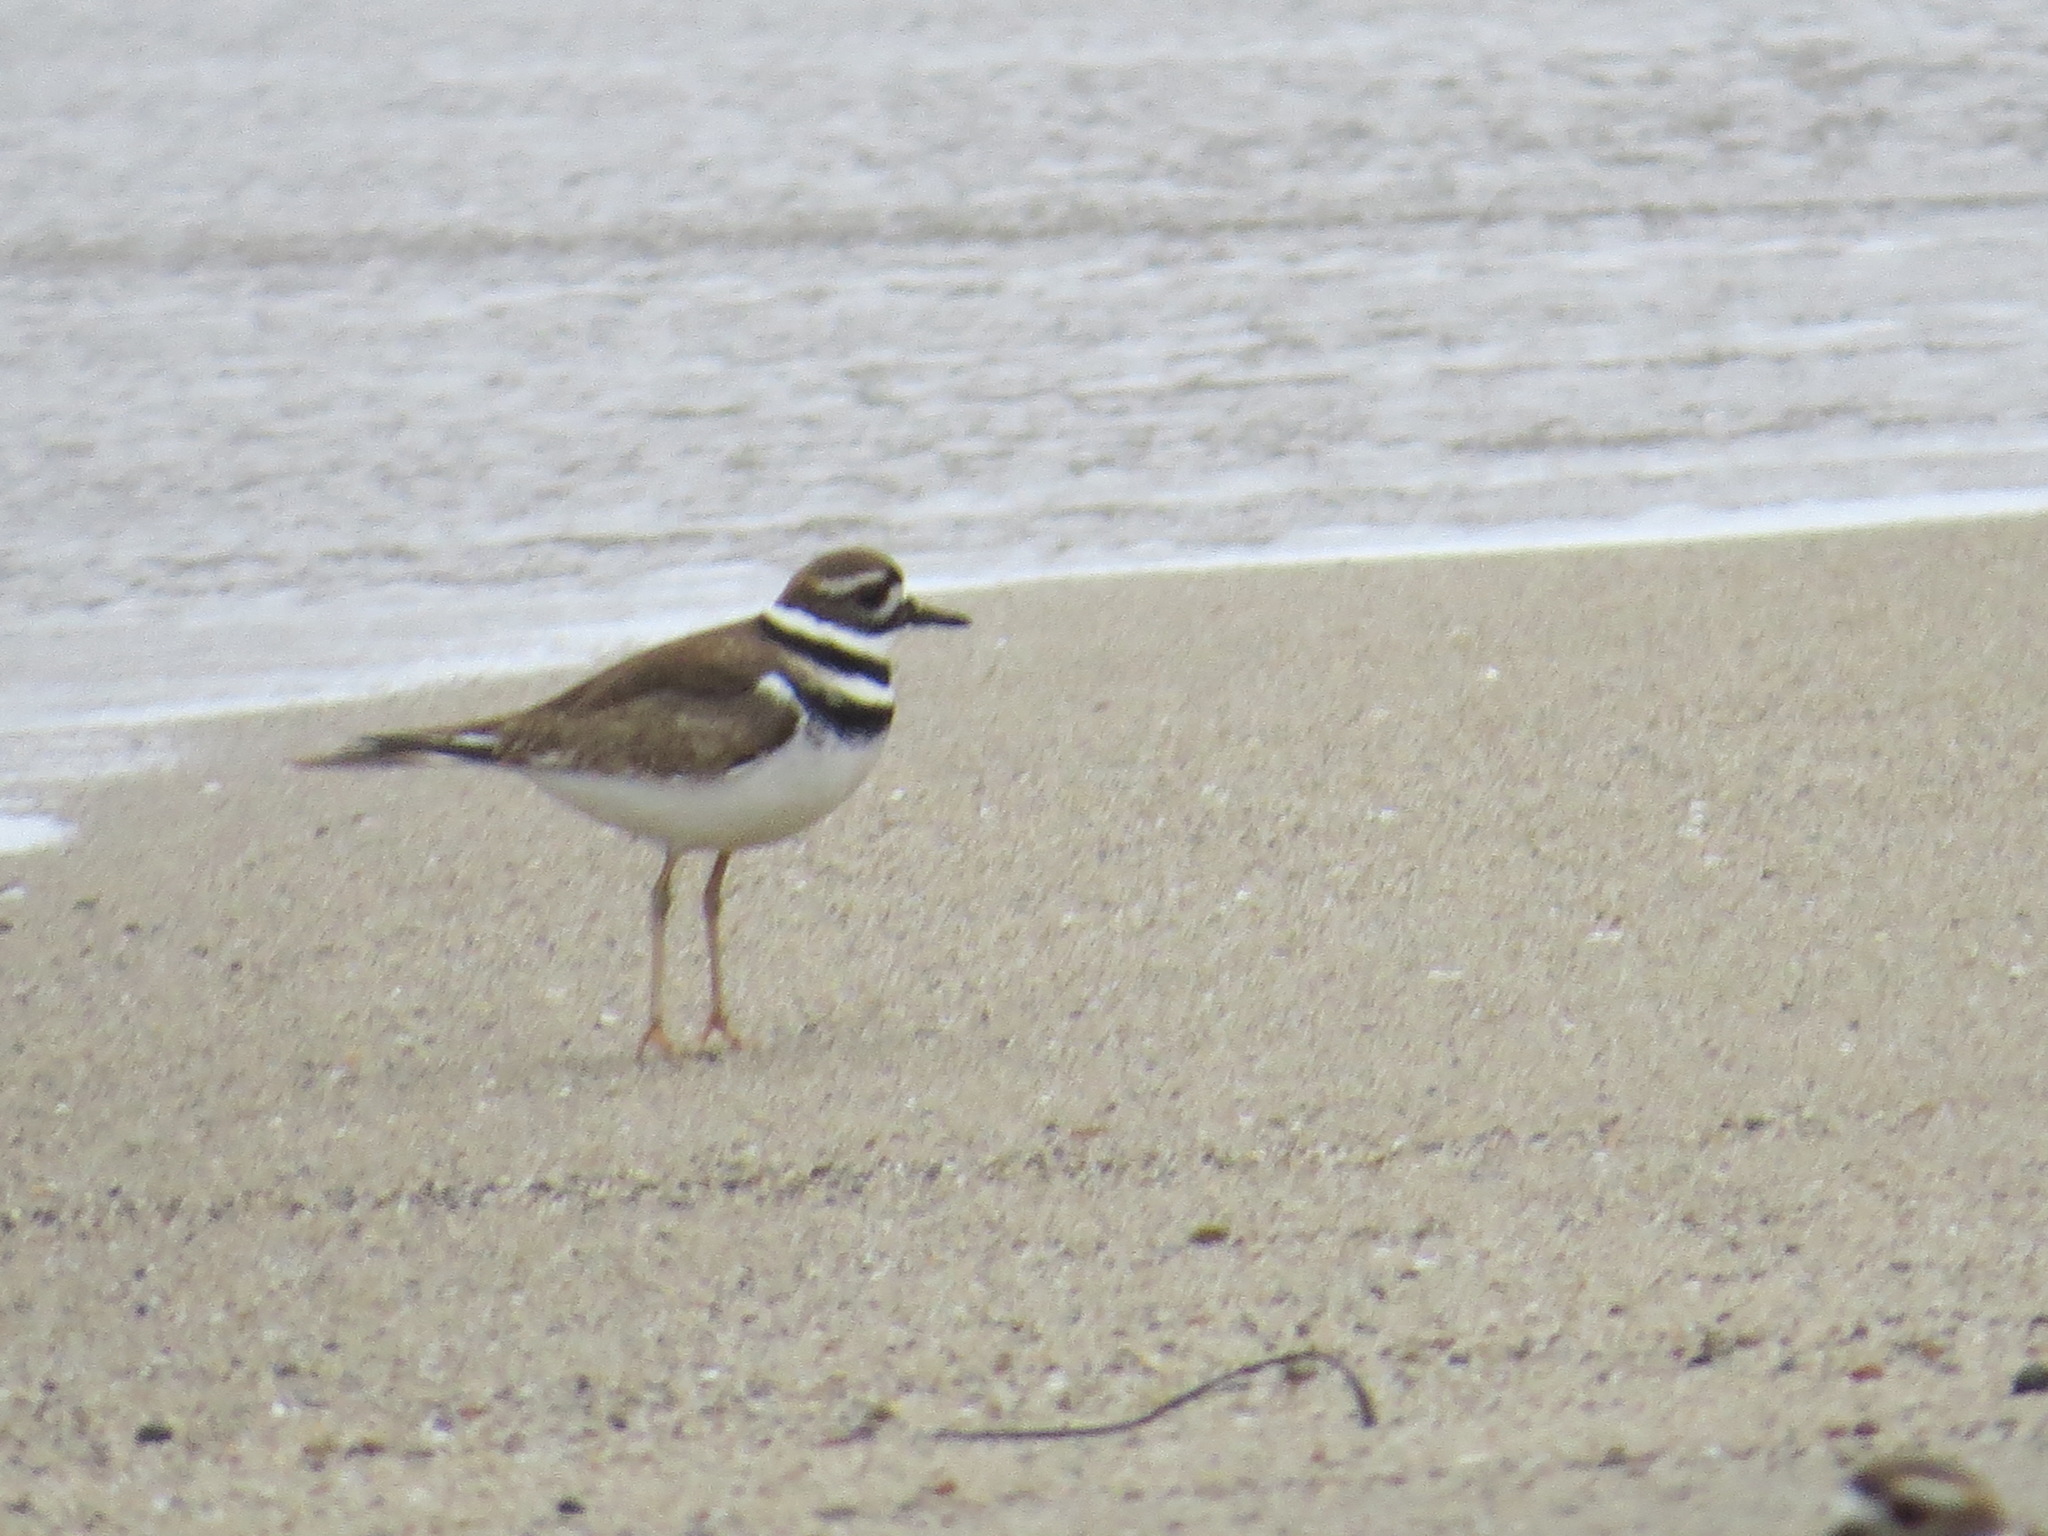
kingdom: Animalia
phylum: Chordata
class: Aves
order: Charadriiformes
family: Charadriidae
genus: Charadrius
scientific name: Charadrius vociferus
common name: Killdeer
